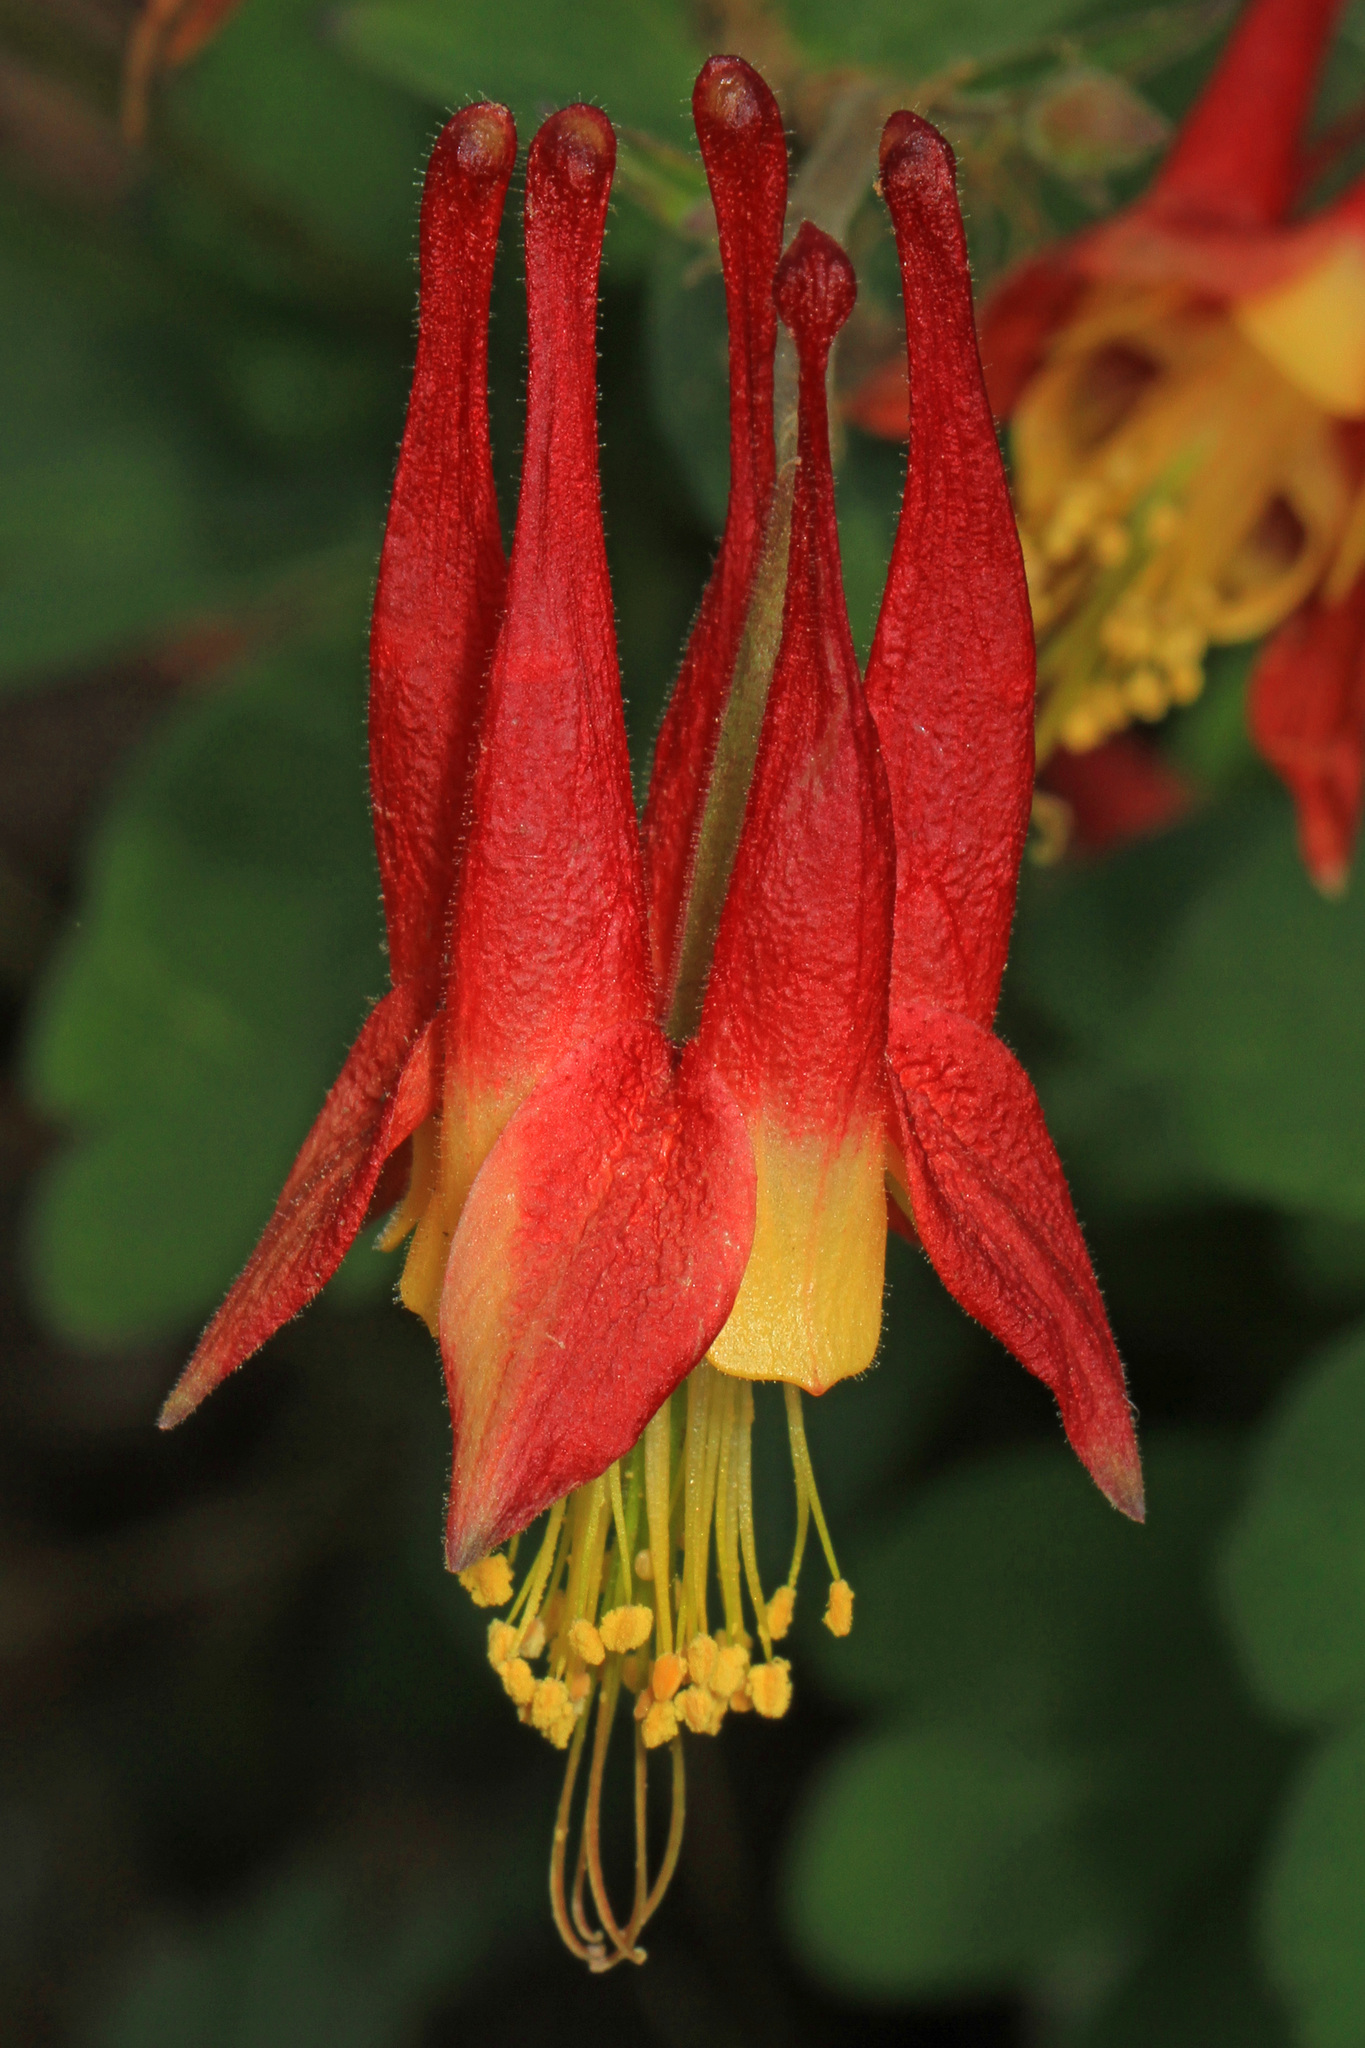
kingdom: Plantae
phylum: Tracheophyta
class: Magnoliopsida
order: Ranunculales
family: Ranunculaceae
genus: Aquilegia
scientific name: Aquilegia canadensis
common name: American columbine
